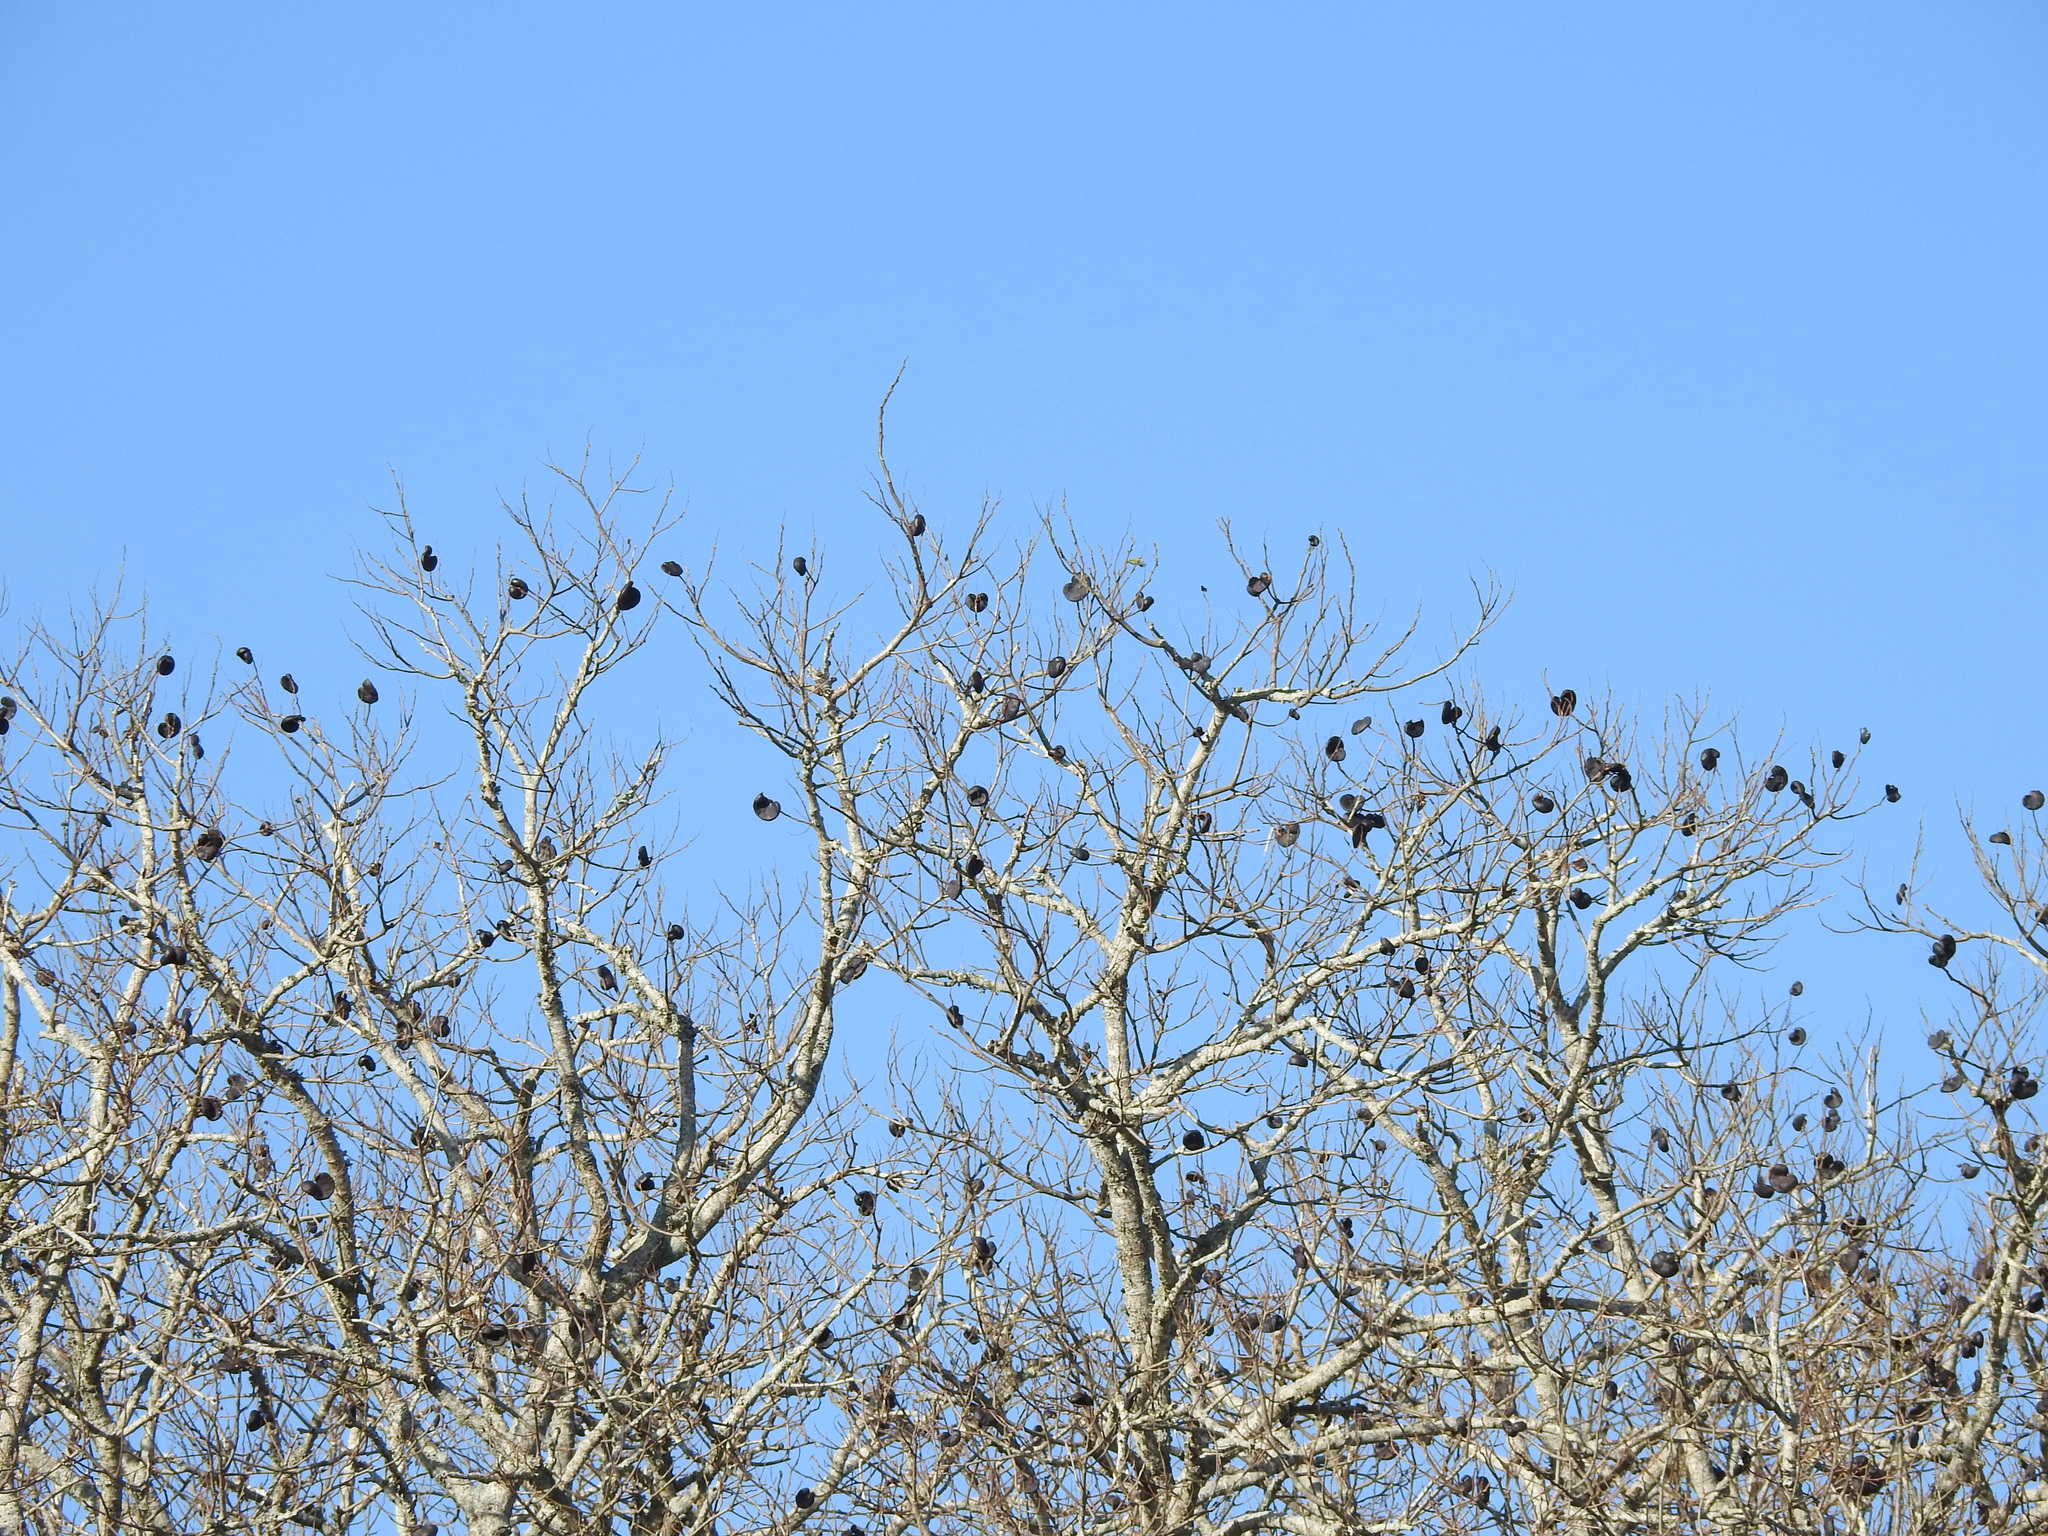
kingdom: Plantae
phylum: Tracheophyta
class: Magnoliopsida
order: Fabales
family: Fabaceae
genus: Enterolobium
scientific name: Enterolobium contortisiliquum
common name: Pacara earpod tree
